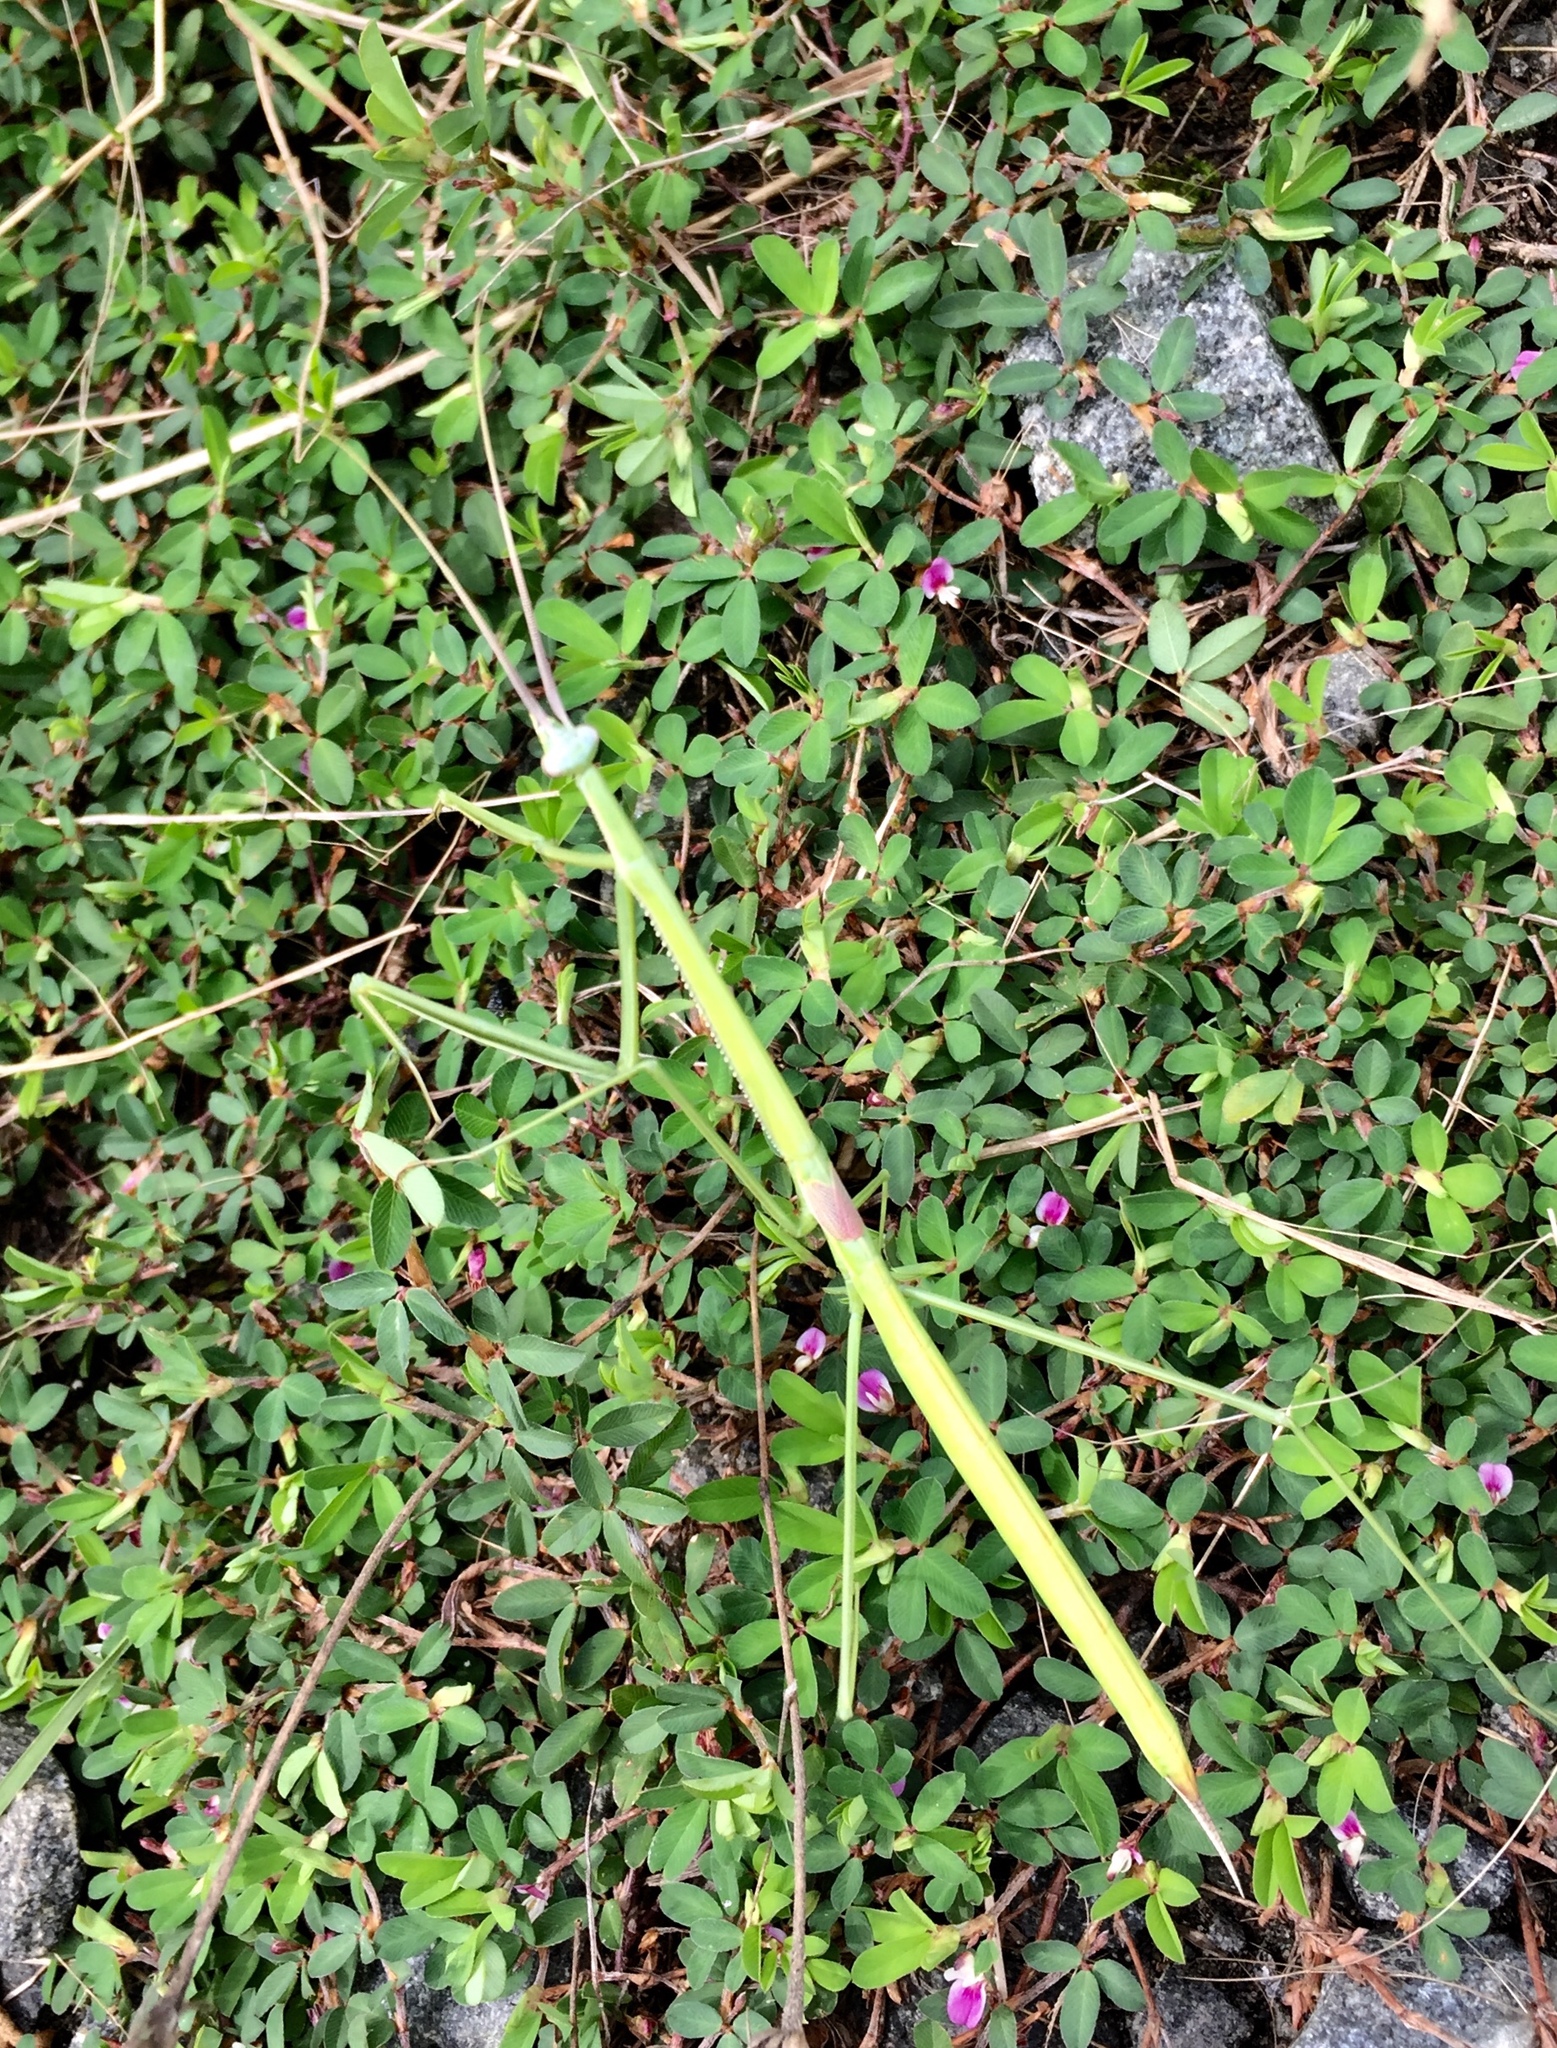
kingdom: Animalia
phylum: Arthropoda
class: Insecta
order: Mantodea
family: Coptopterygidae
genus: Brunneria
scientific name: Brunneria borealis
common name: Mantis
